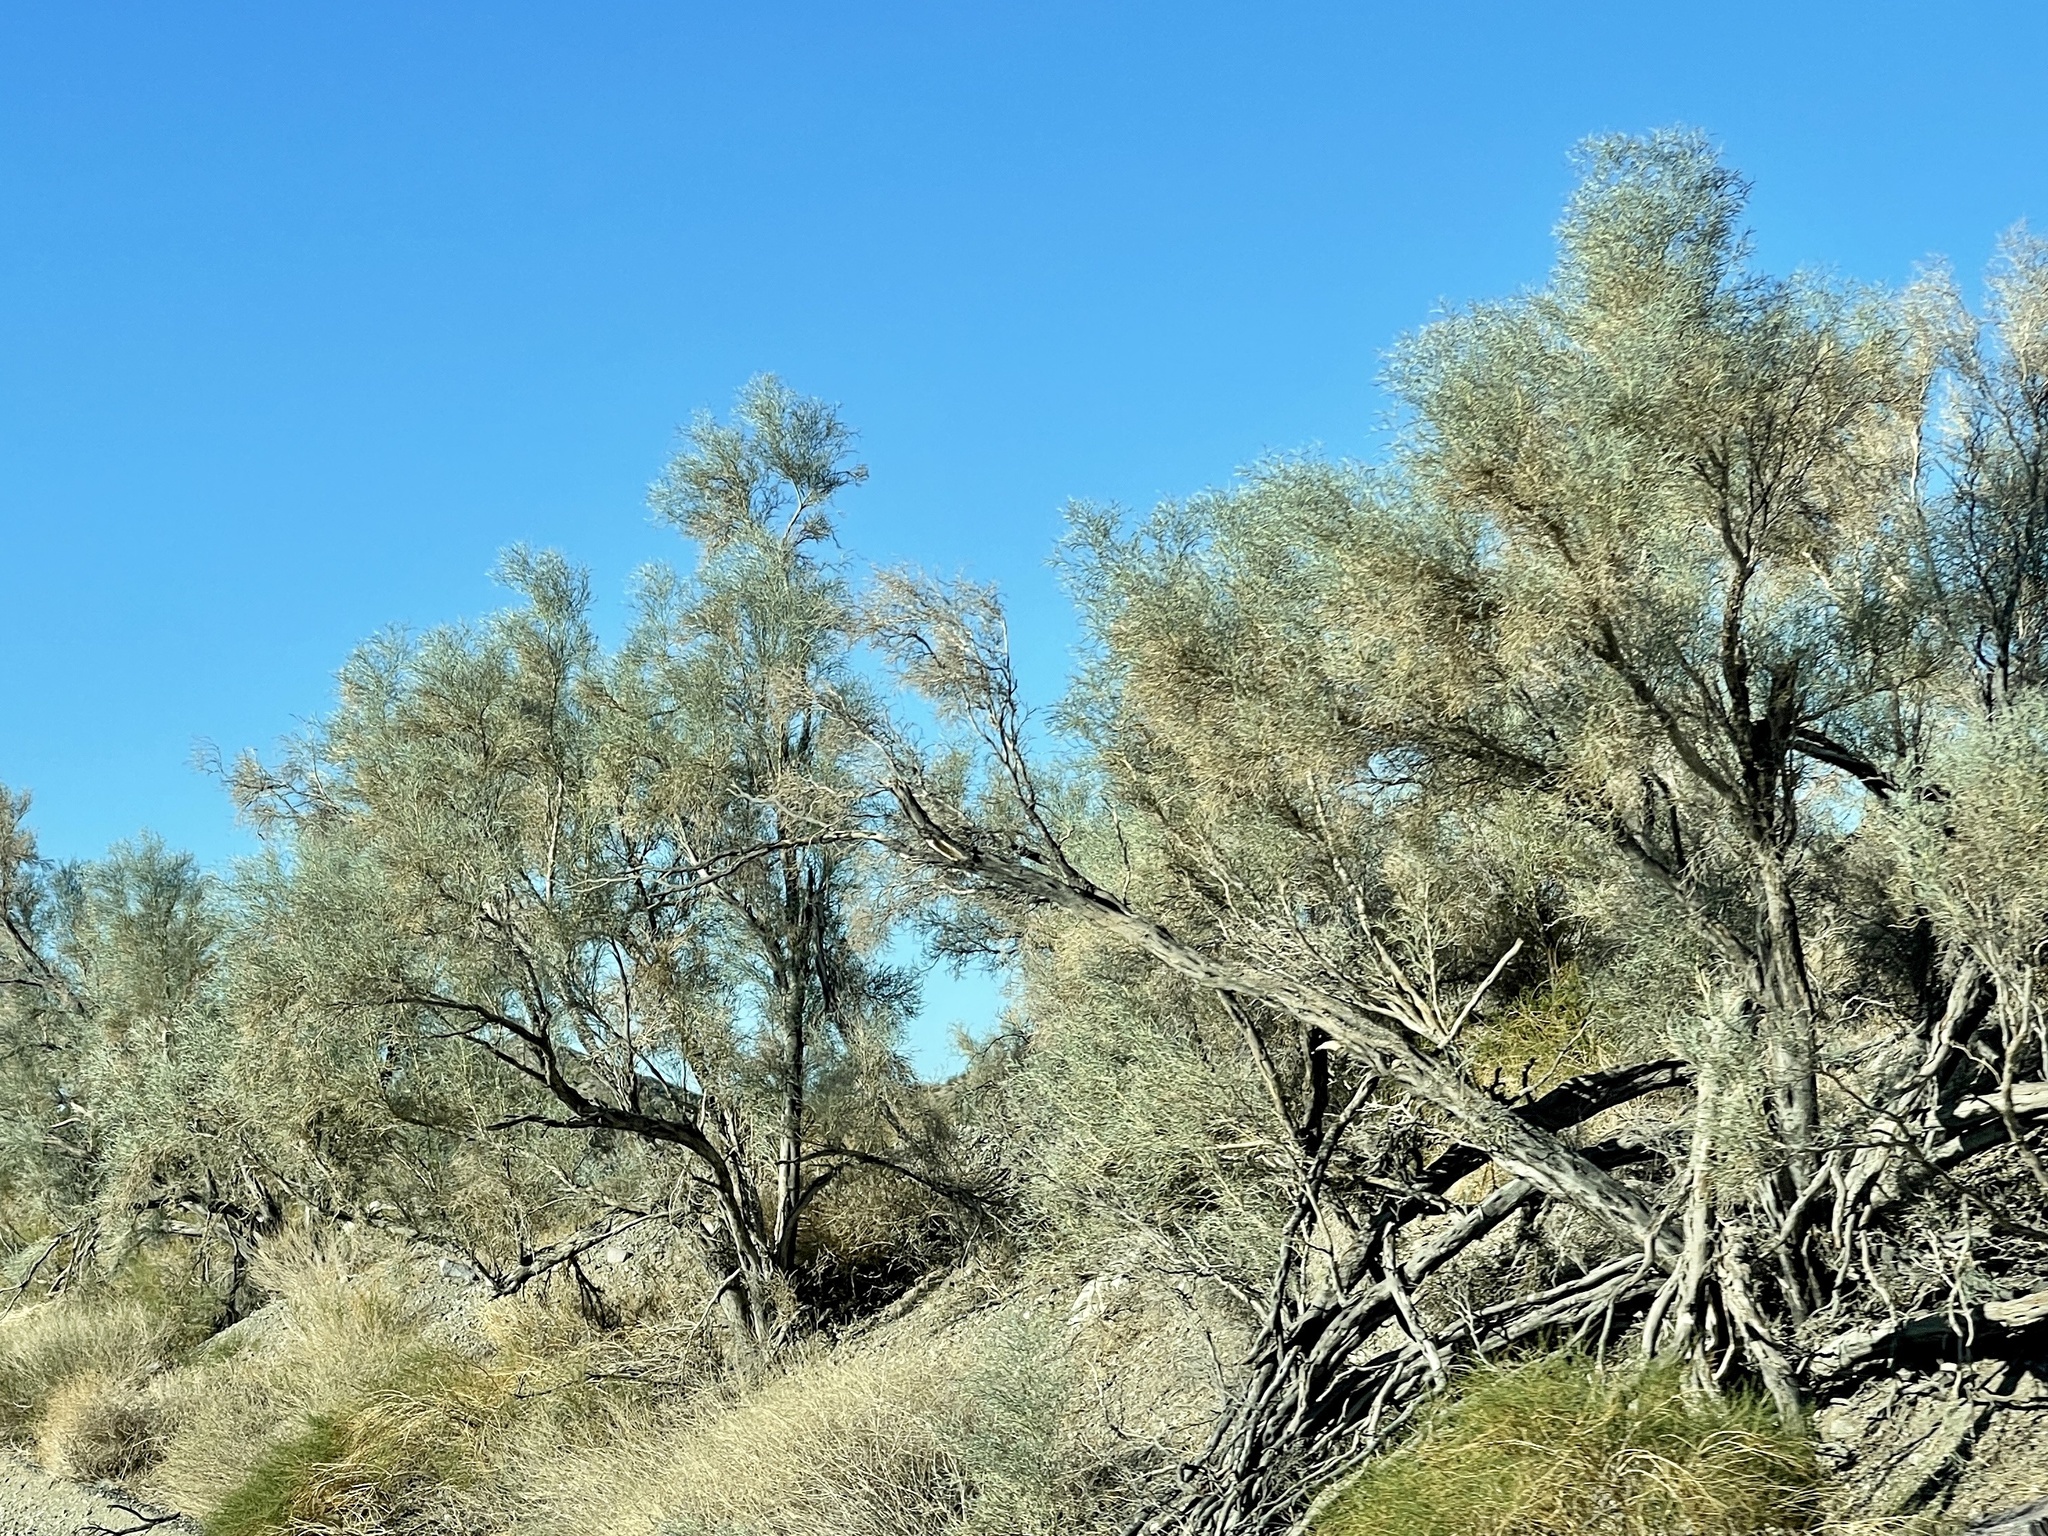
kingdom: Plantae
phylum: Tracheophyta
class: Magnoliopsida
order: Fabales
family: Fabaceae
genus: Psorothamnus
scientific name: Psorothamnus spinosus
